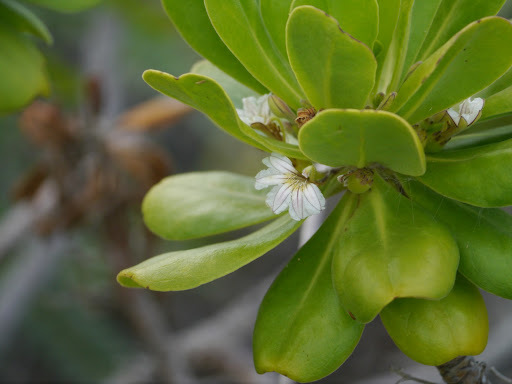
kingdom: Plantae
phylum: Tracheophyta
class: Magnoliopsida
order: Asterales
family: Goodeniaceae
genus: Scaevola
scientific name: Scaevola taccada
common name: Sea lettucetree
